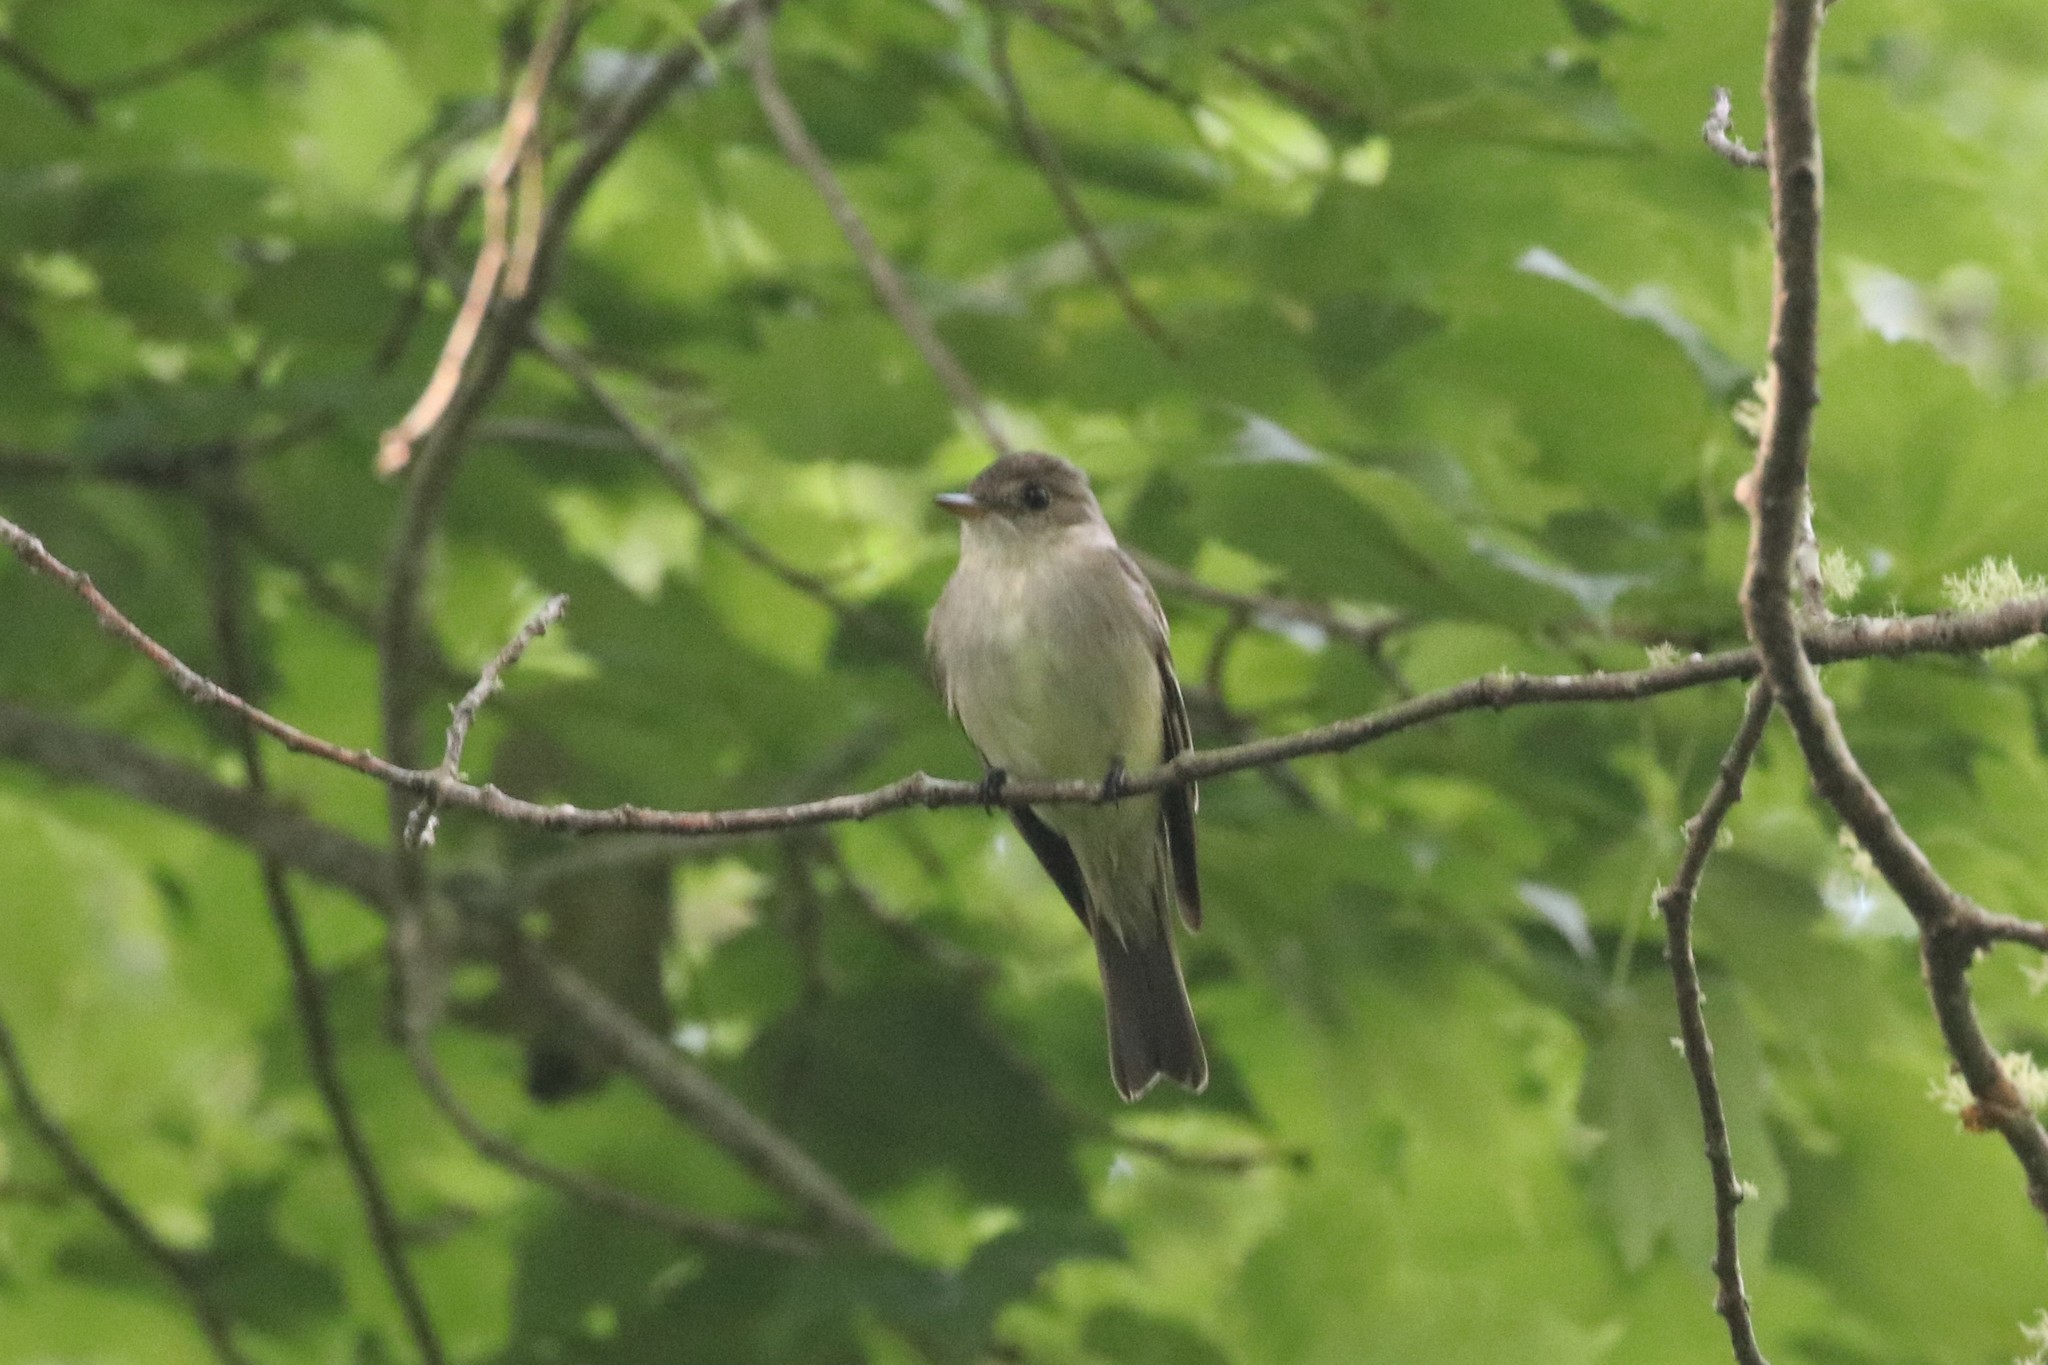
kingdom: Animalia
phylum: Chordata
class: Aves
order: Passeriformes
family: Tyrannidae
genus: Contopus
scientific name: Contopus virens
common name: Eastern wood-pewee
